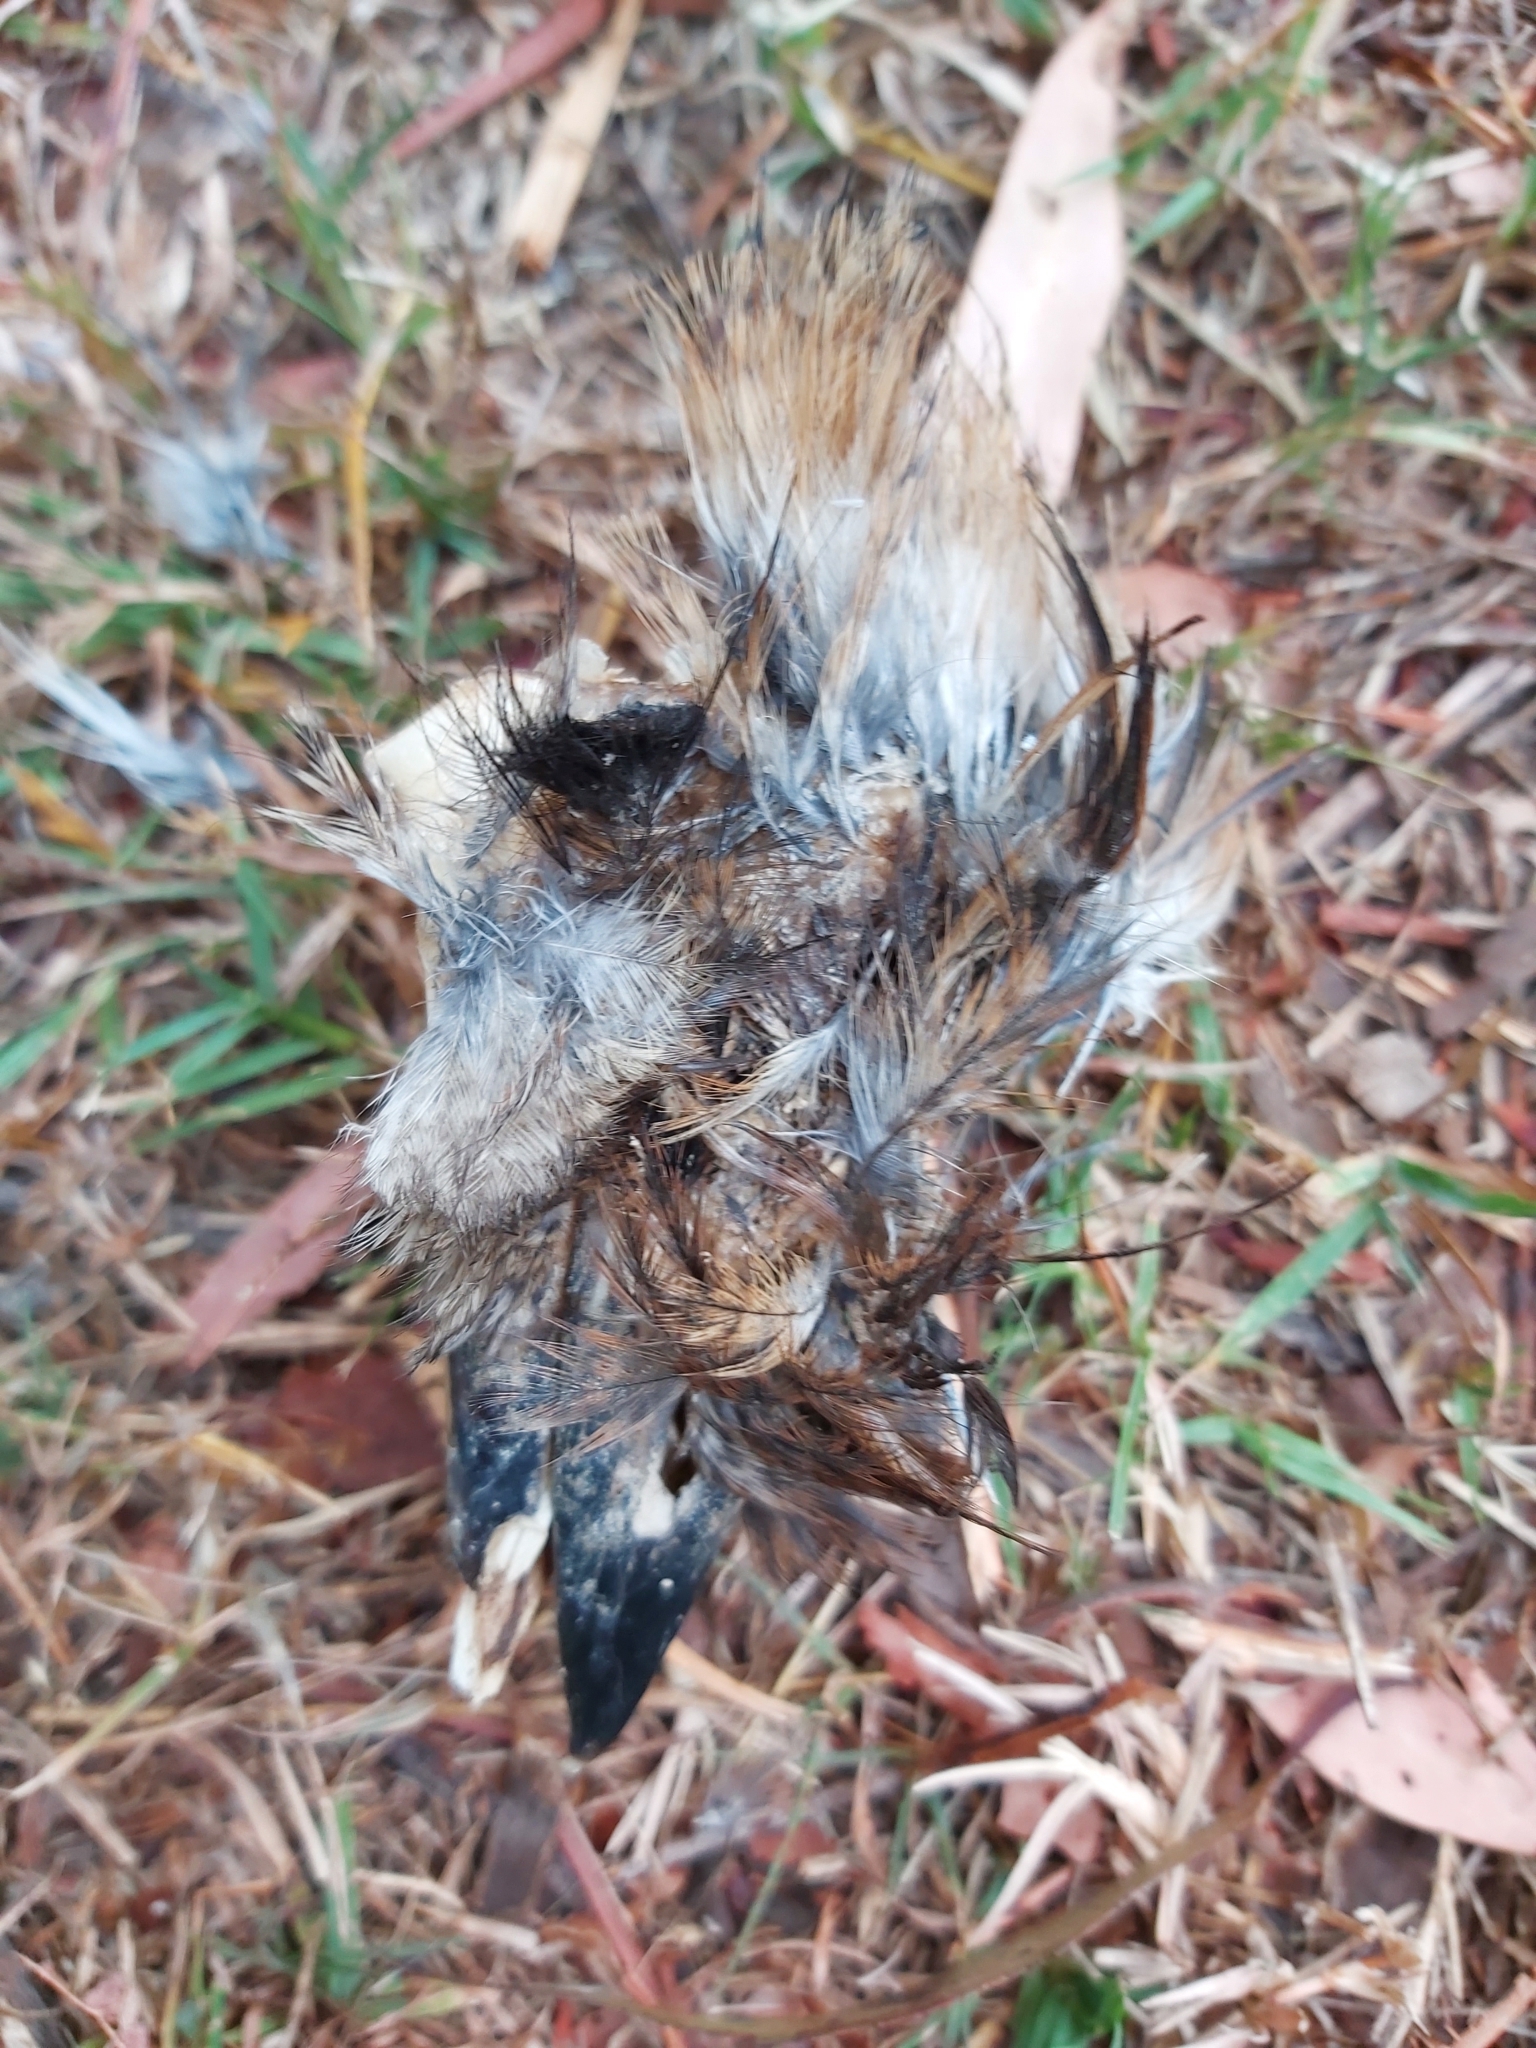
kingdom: Animalia
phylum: Chordata
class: Aves
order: Coraciiformes
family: Alcedinidae
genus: Dacelo
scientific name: Dacelo novaeguineae
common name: Laughing kookaburra
